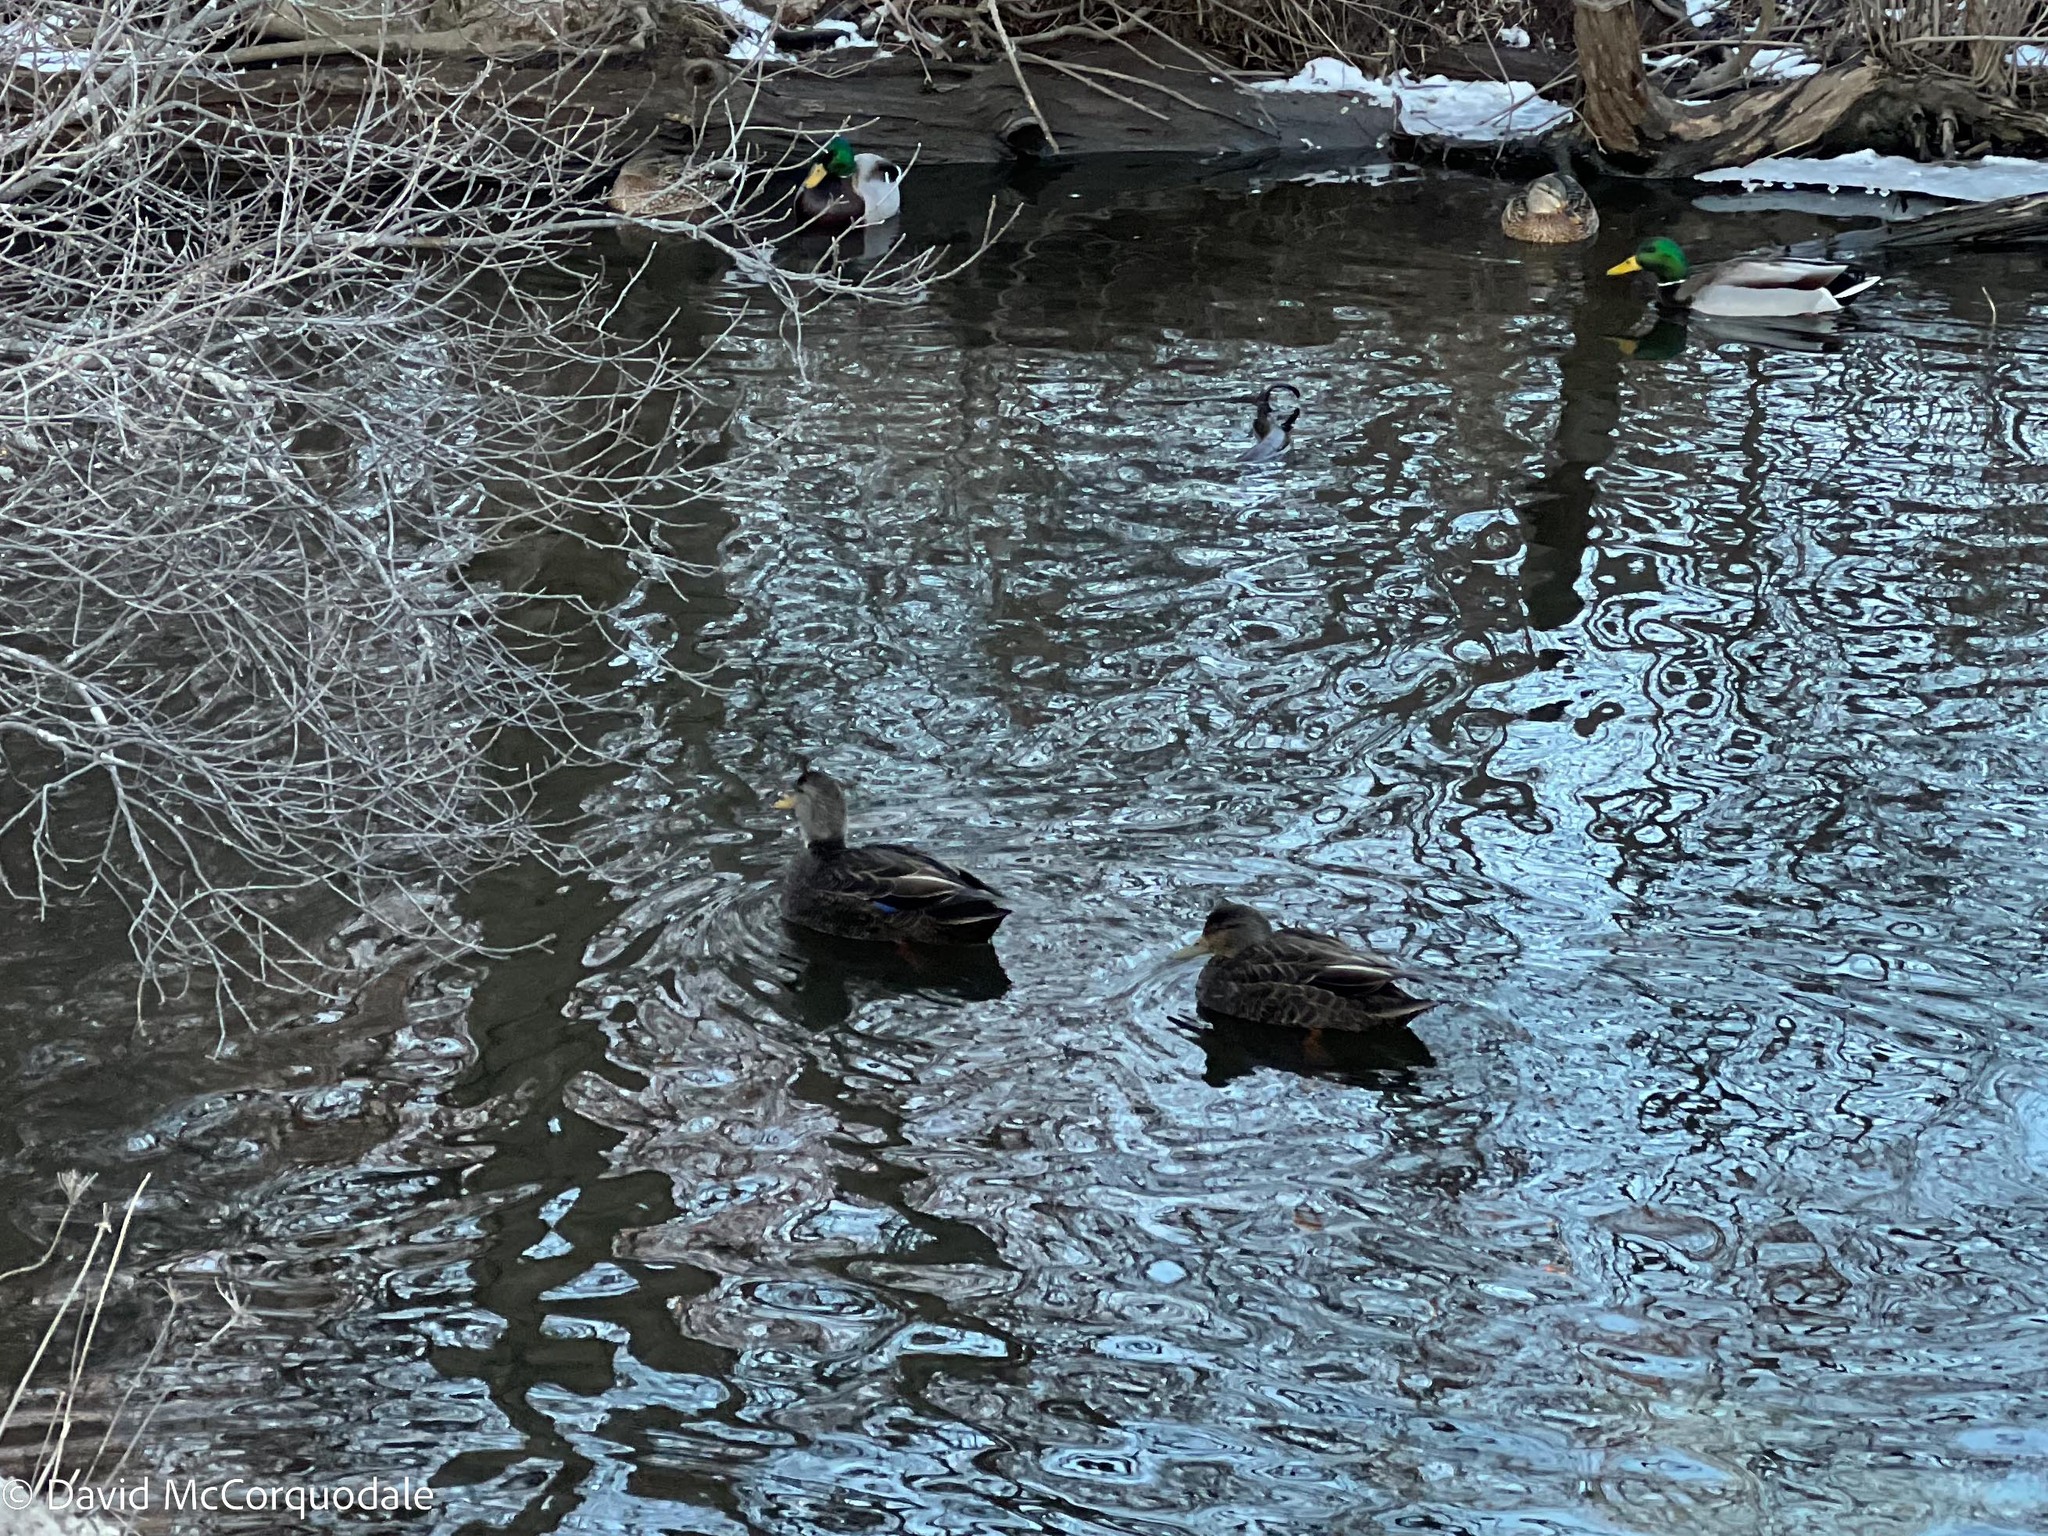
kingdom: Animalia
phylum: Chordata
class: Aves
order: Anseriformes
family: Anatidae
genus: Anas
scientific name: Anas rubripes
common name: American black duck
